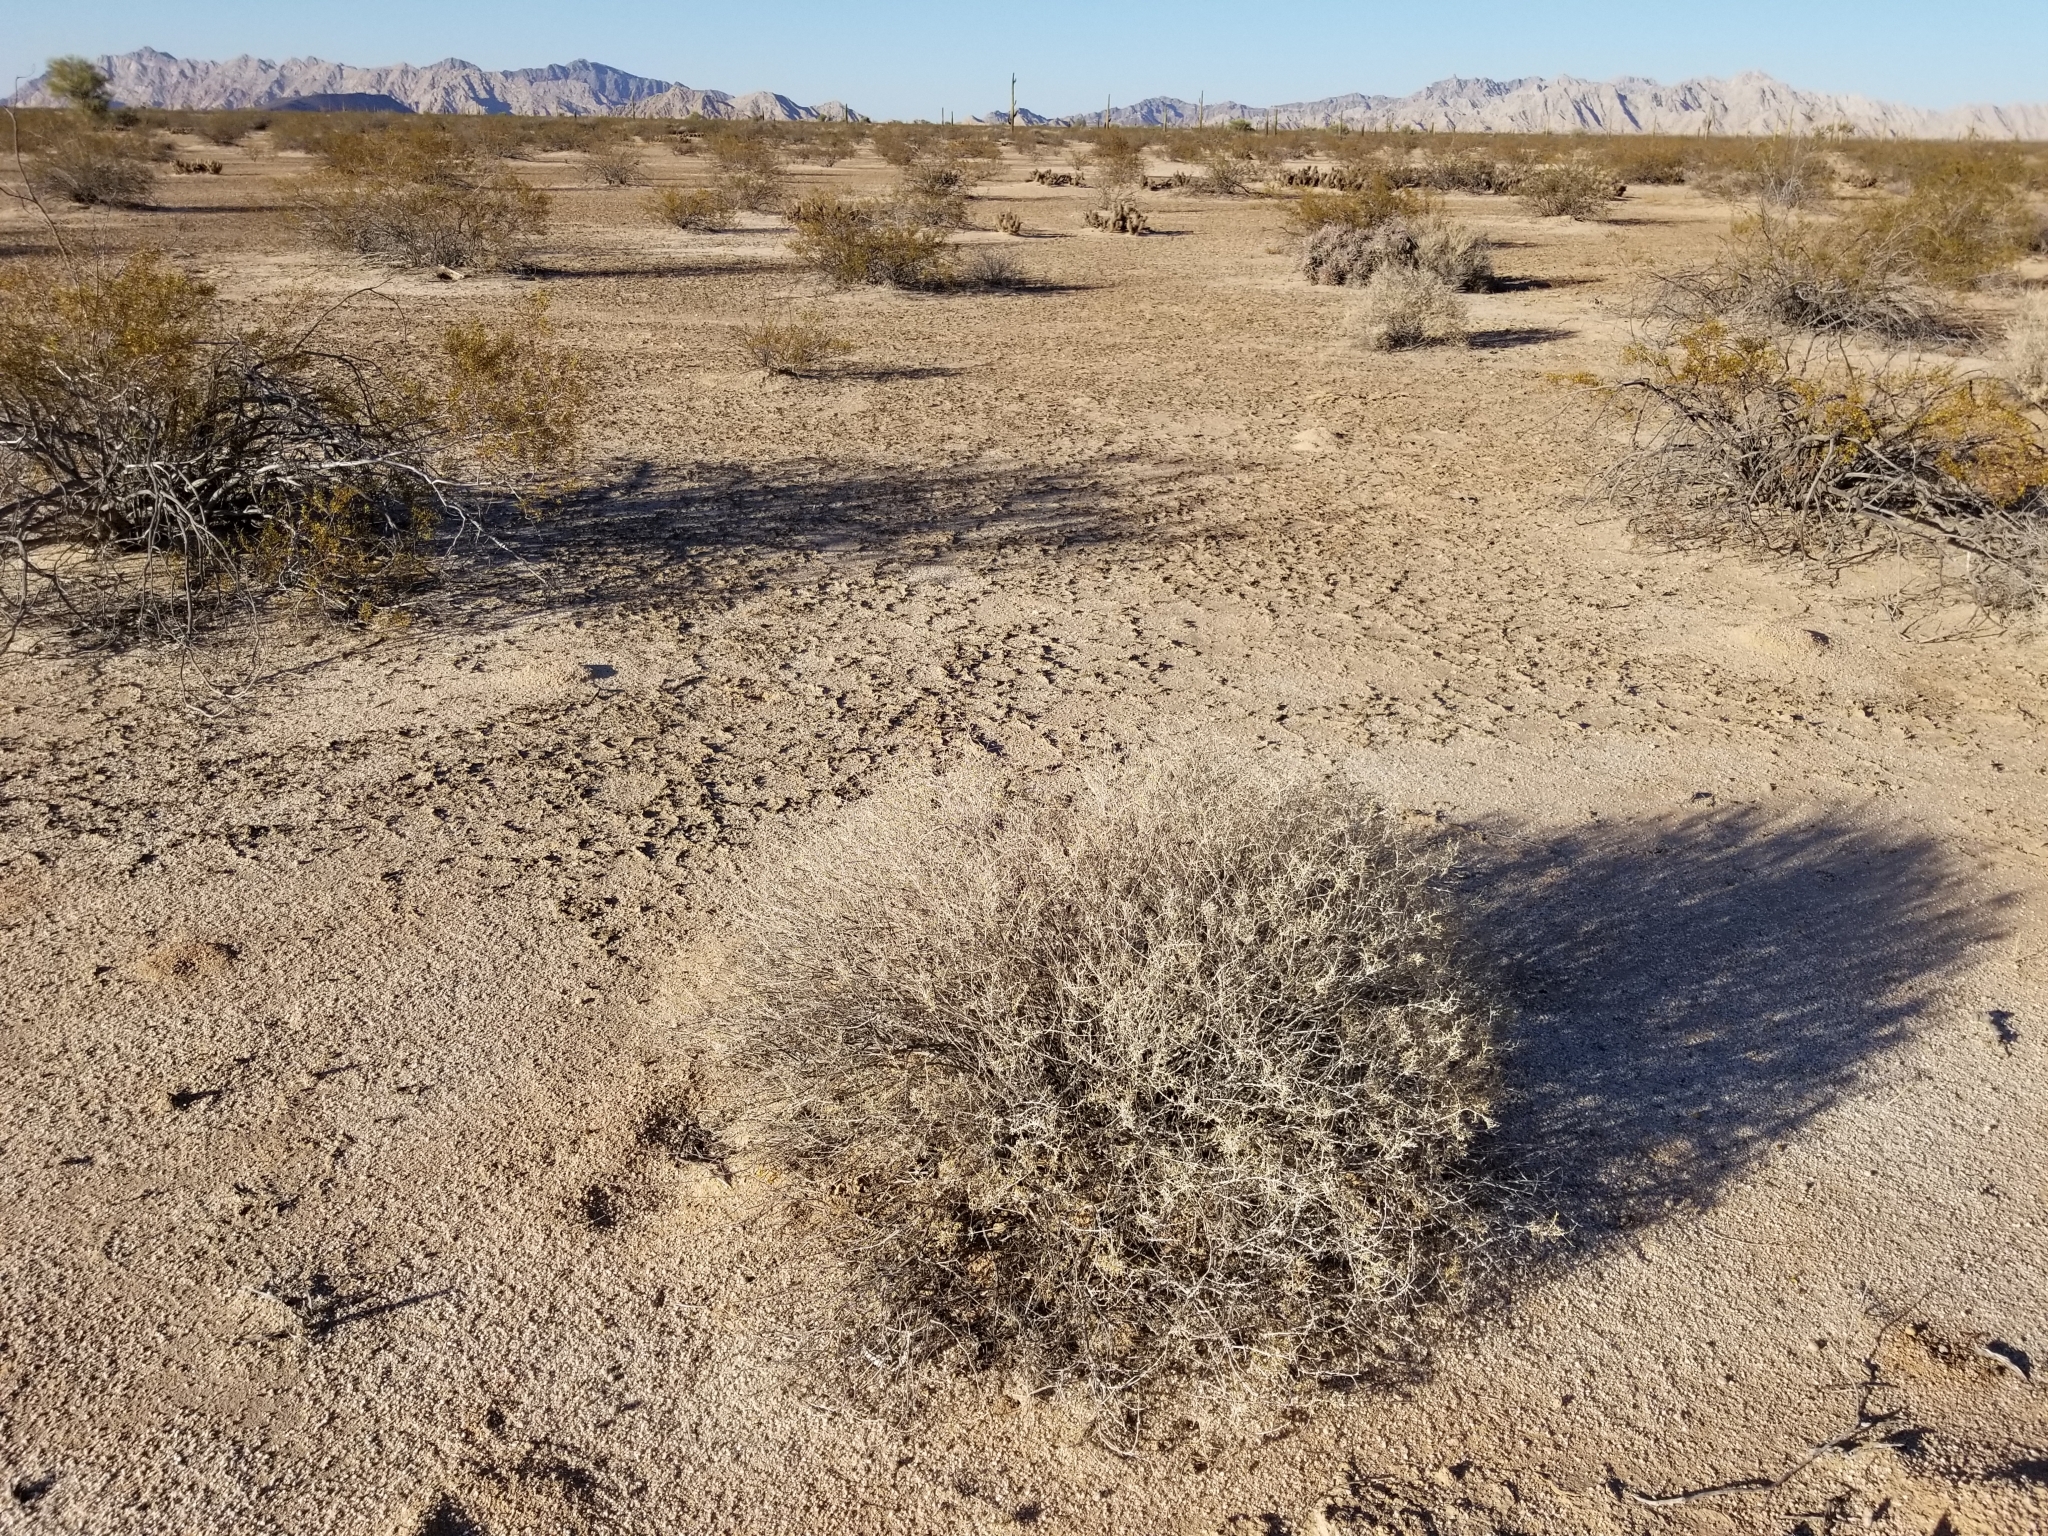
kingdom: Plantae
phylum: Tracheophyta
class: Magnoliopsida
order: Asterales
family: Asteraceae
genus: Ambrosia
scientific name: Ambrosia dumosa
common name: Bur-sage
